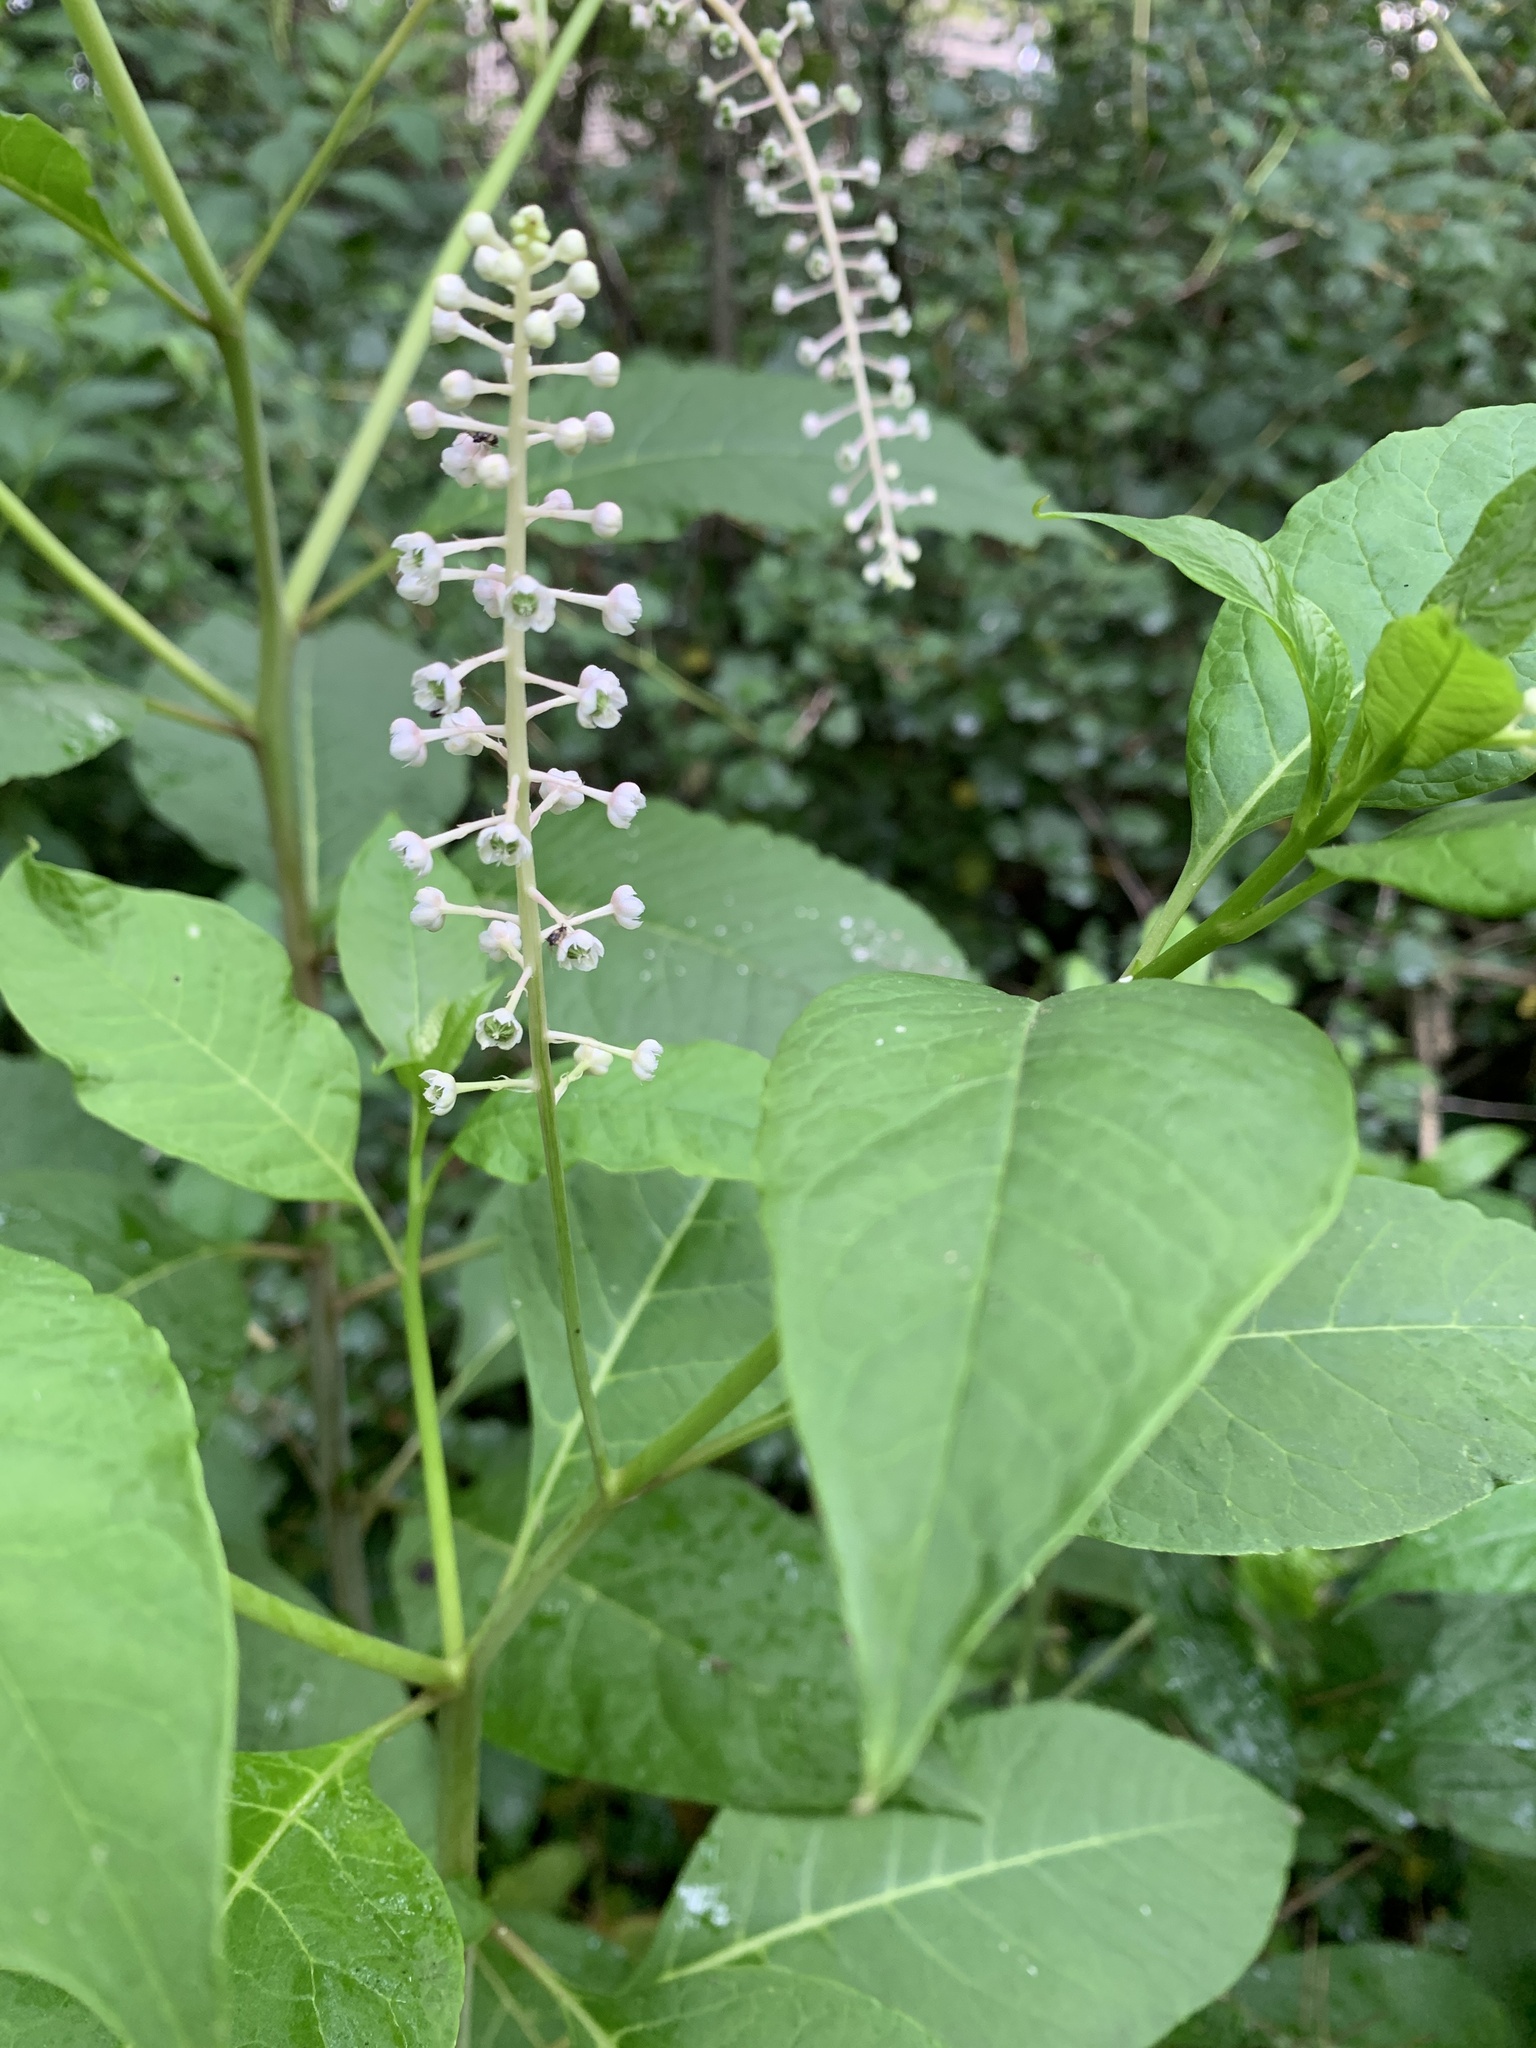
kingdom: Plantae
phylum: Tracheophyta
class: Magnoliopsida
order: Caryophyllales
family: Phytolaccaceae
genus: Phytolacca
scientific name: Phytolacca americana
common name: American pokeweed
